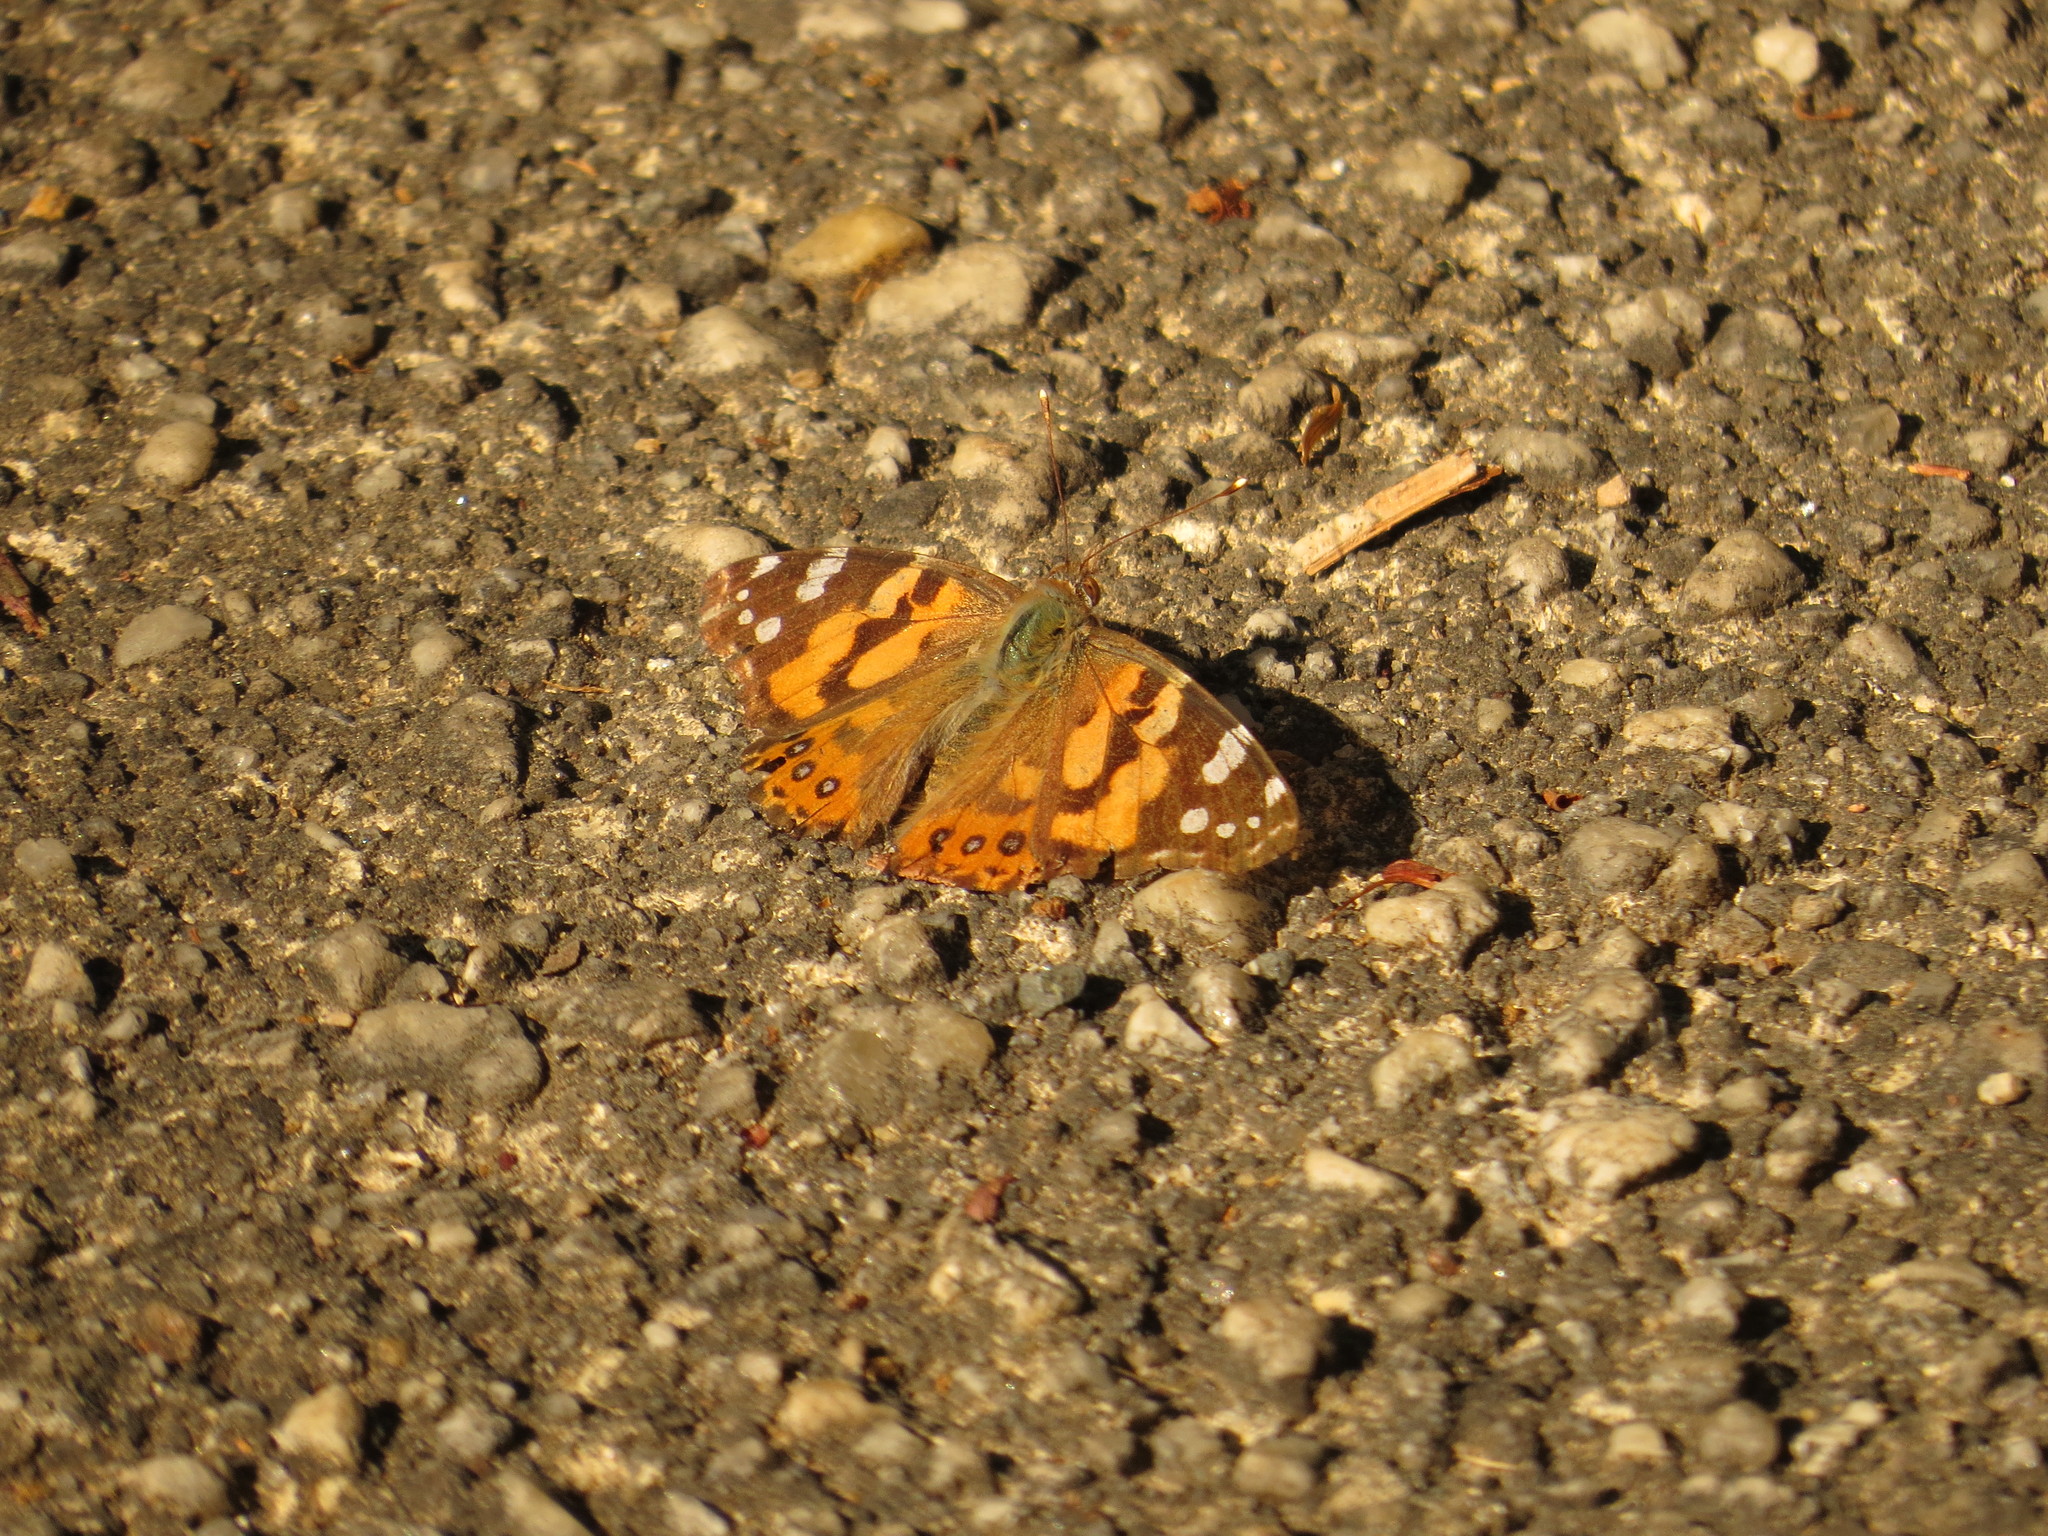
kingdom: Animalia
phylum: Arthropoda
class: Insecta
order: Lepidoptera
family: Nymphalidae
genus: Vanessa
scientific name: Vanessa kershawi
